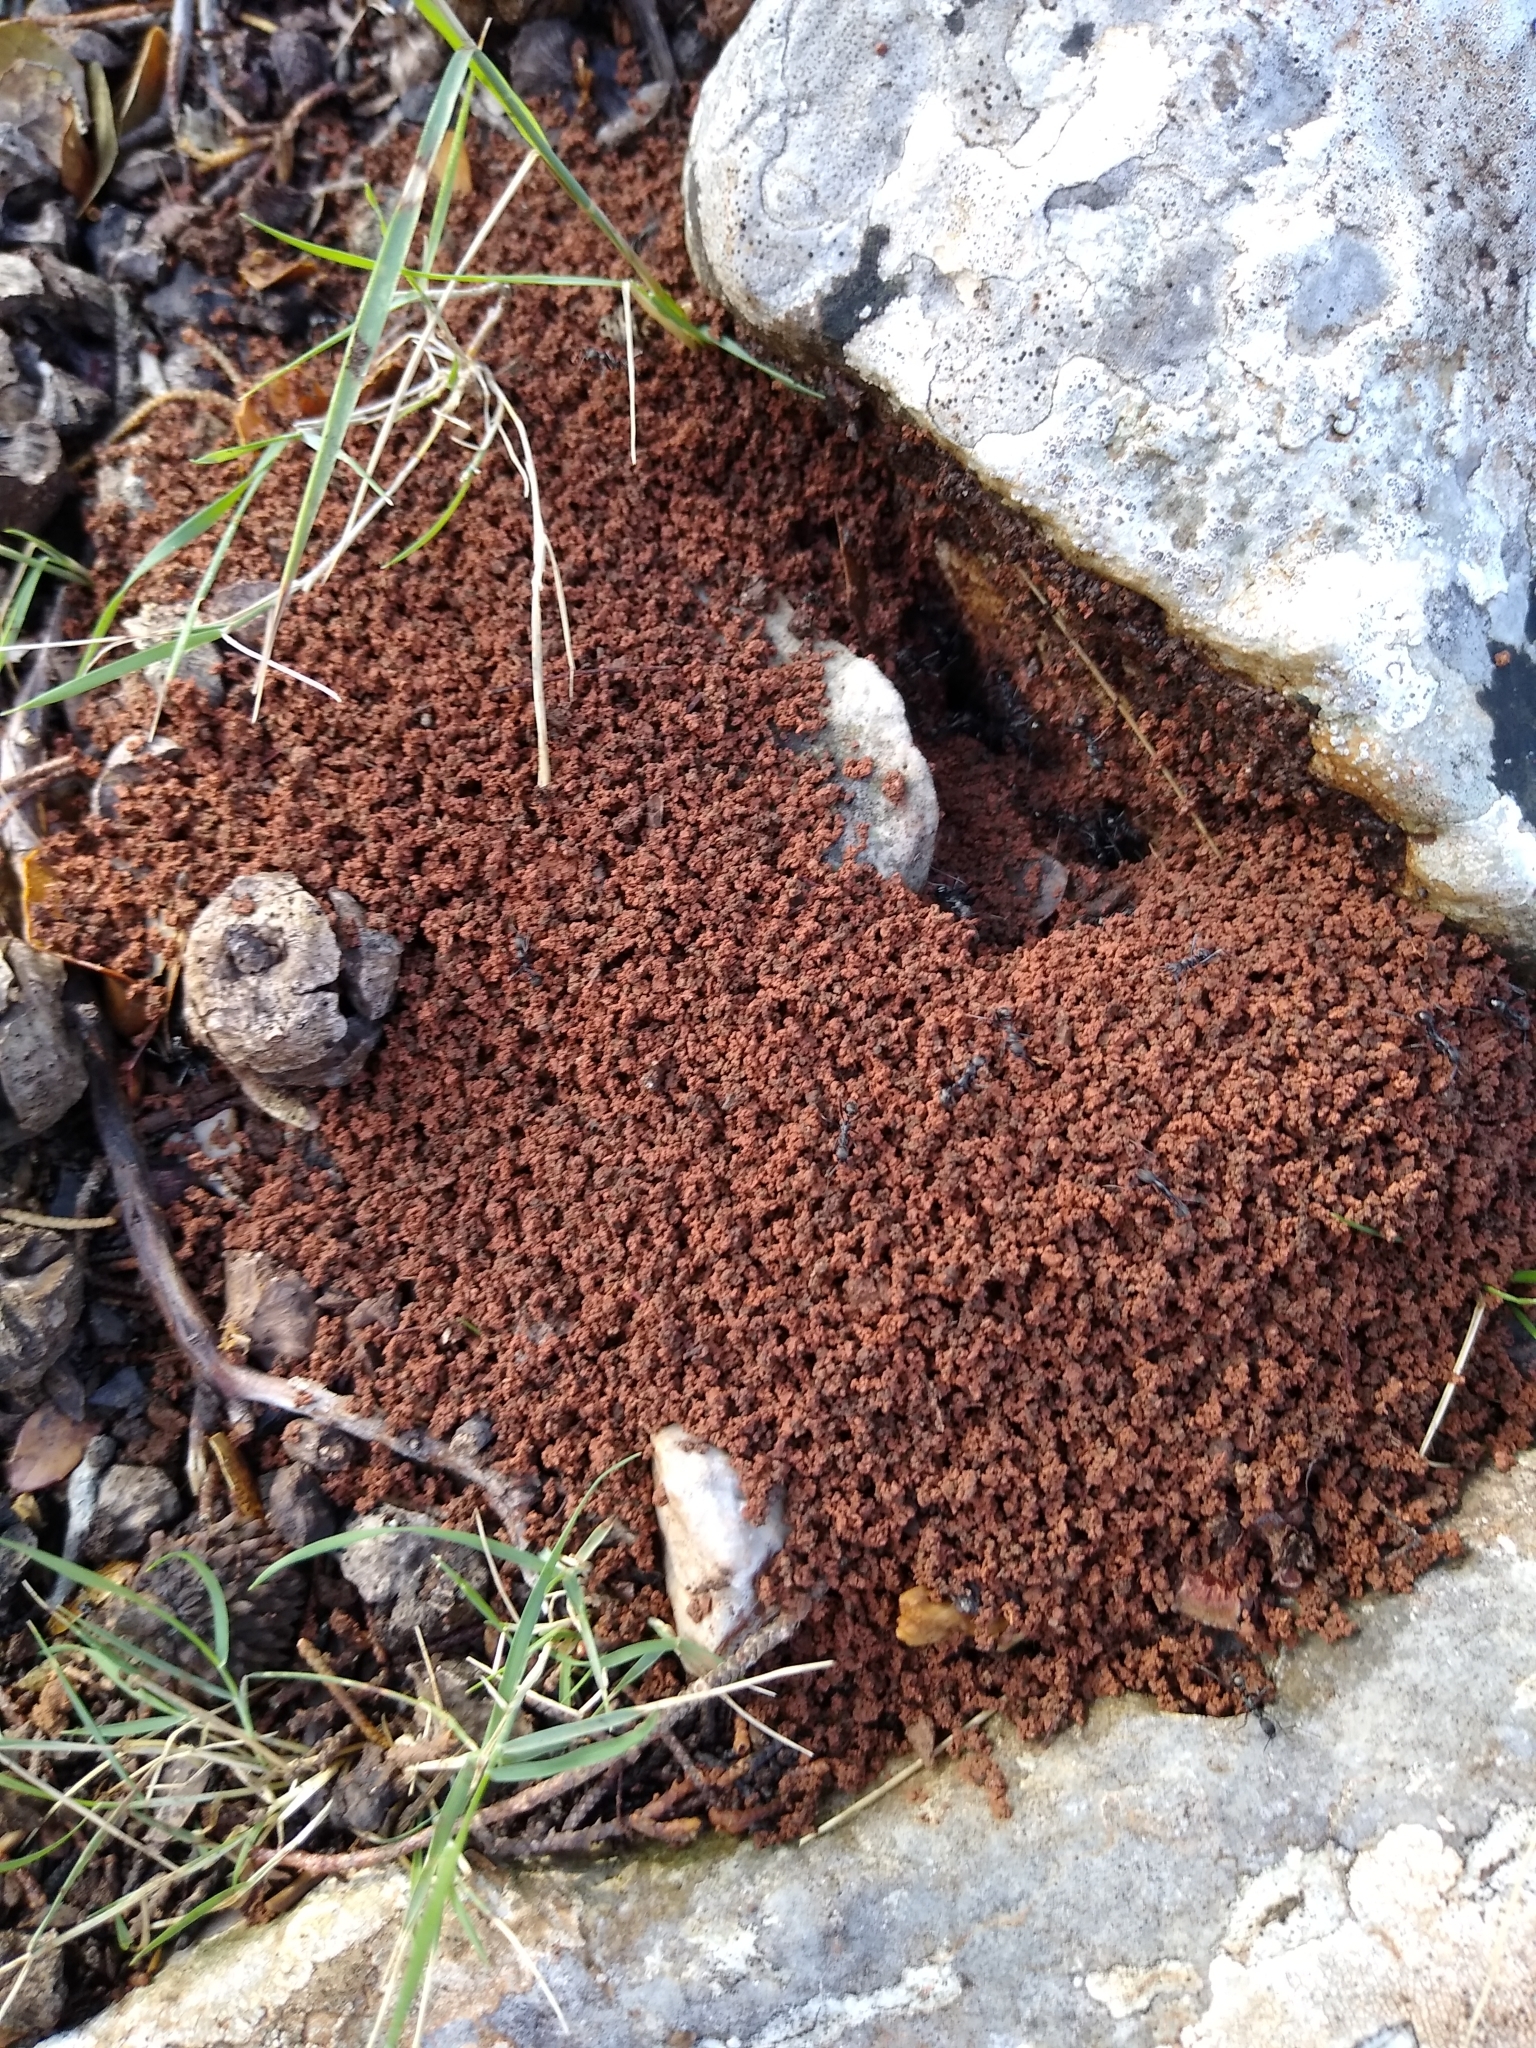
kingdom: Animalia
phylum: Arthropoda
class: Insecta
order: Hymenoptera
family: Formicidae
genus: Aphaenogaster
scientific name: Aphaenogaster
